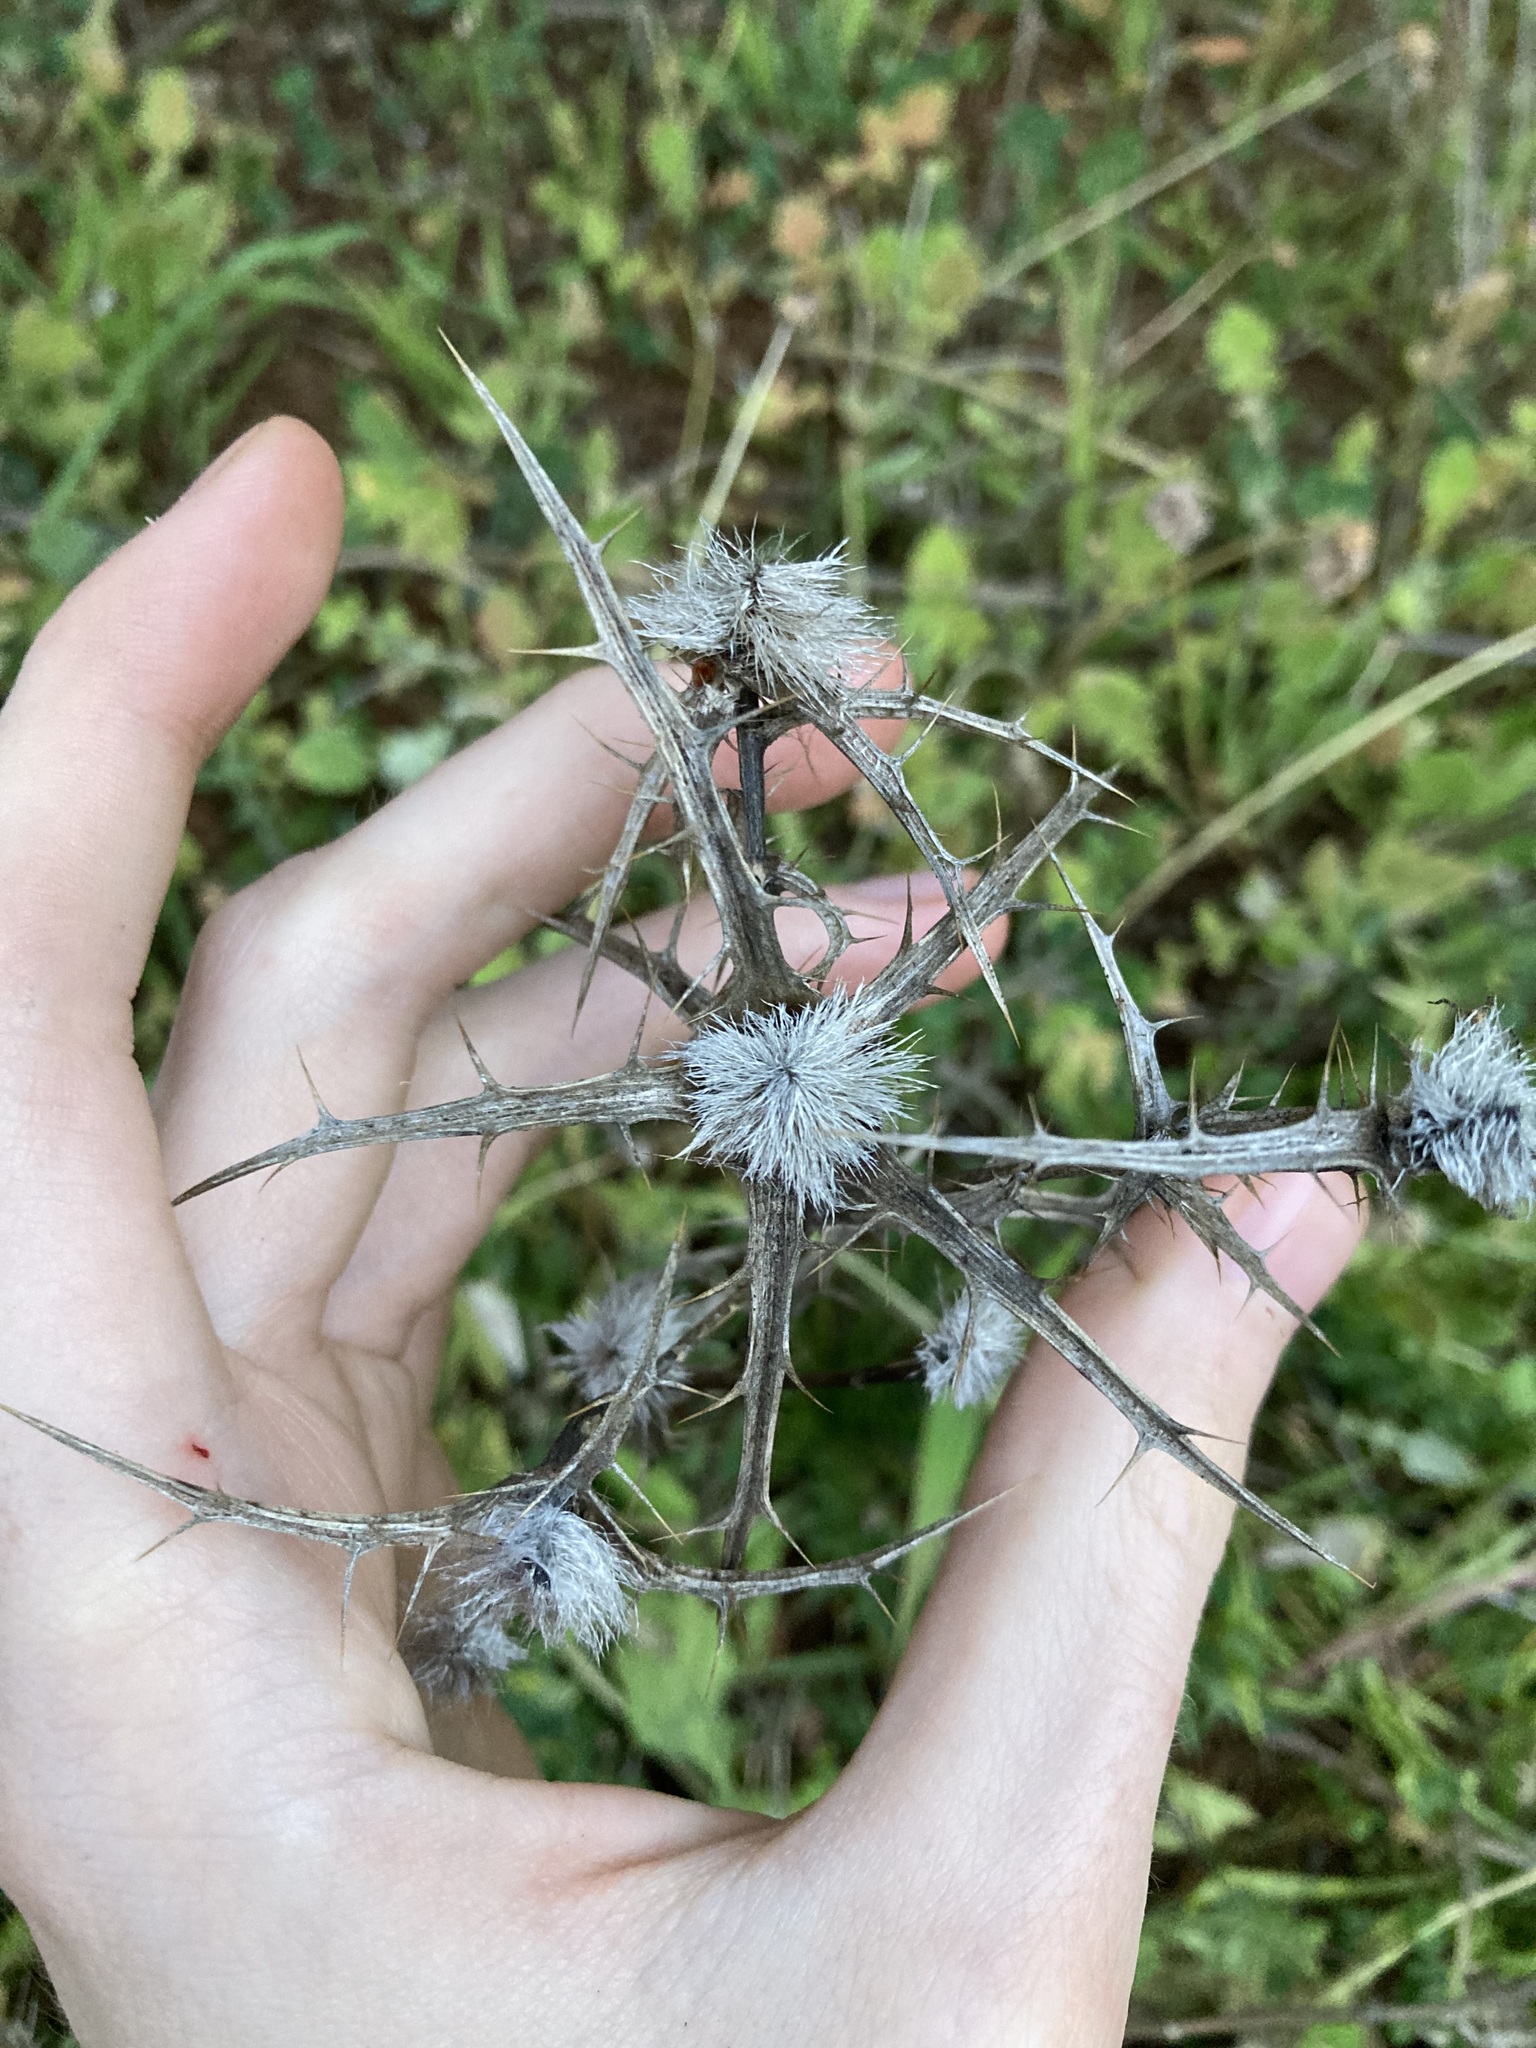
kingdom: Plantae
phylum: Tracheophyta
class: Magnoliopsida
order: Asterales
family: Asteraceae
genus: Carthamus
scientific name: Carthamus lanatus
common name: Downy safflower
